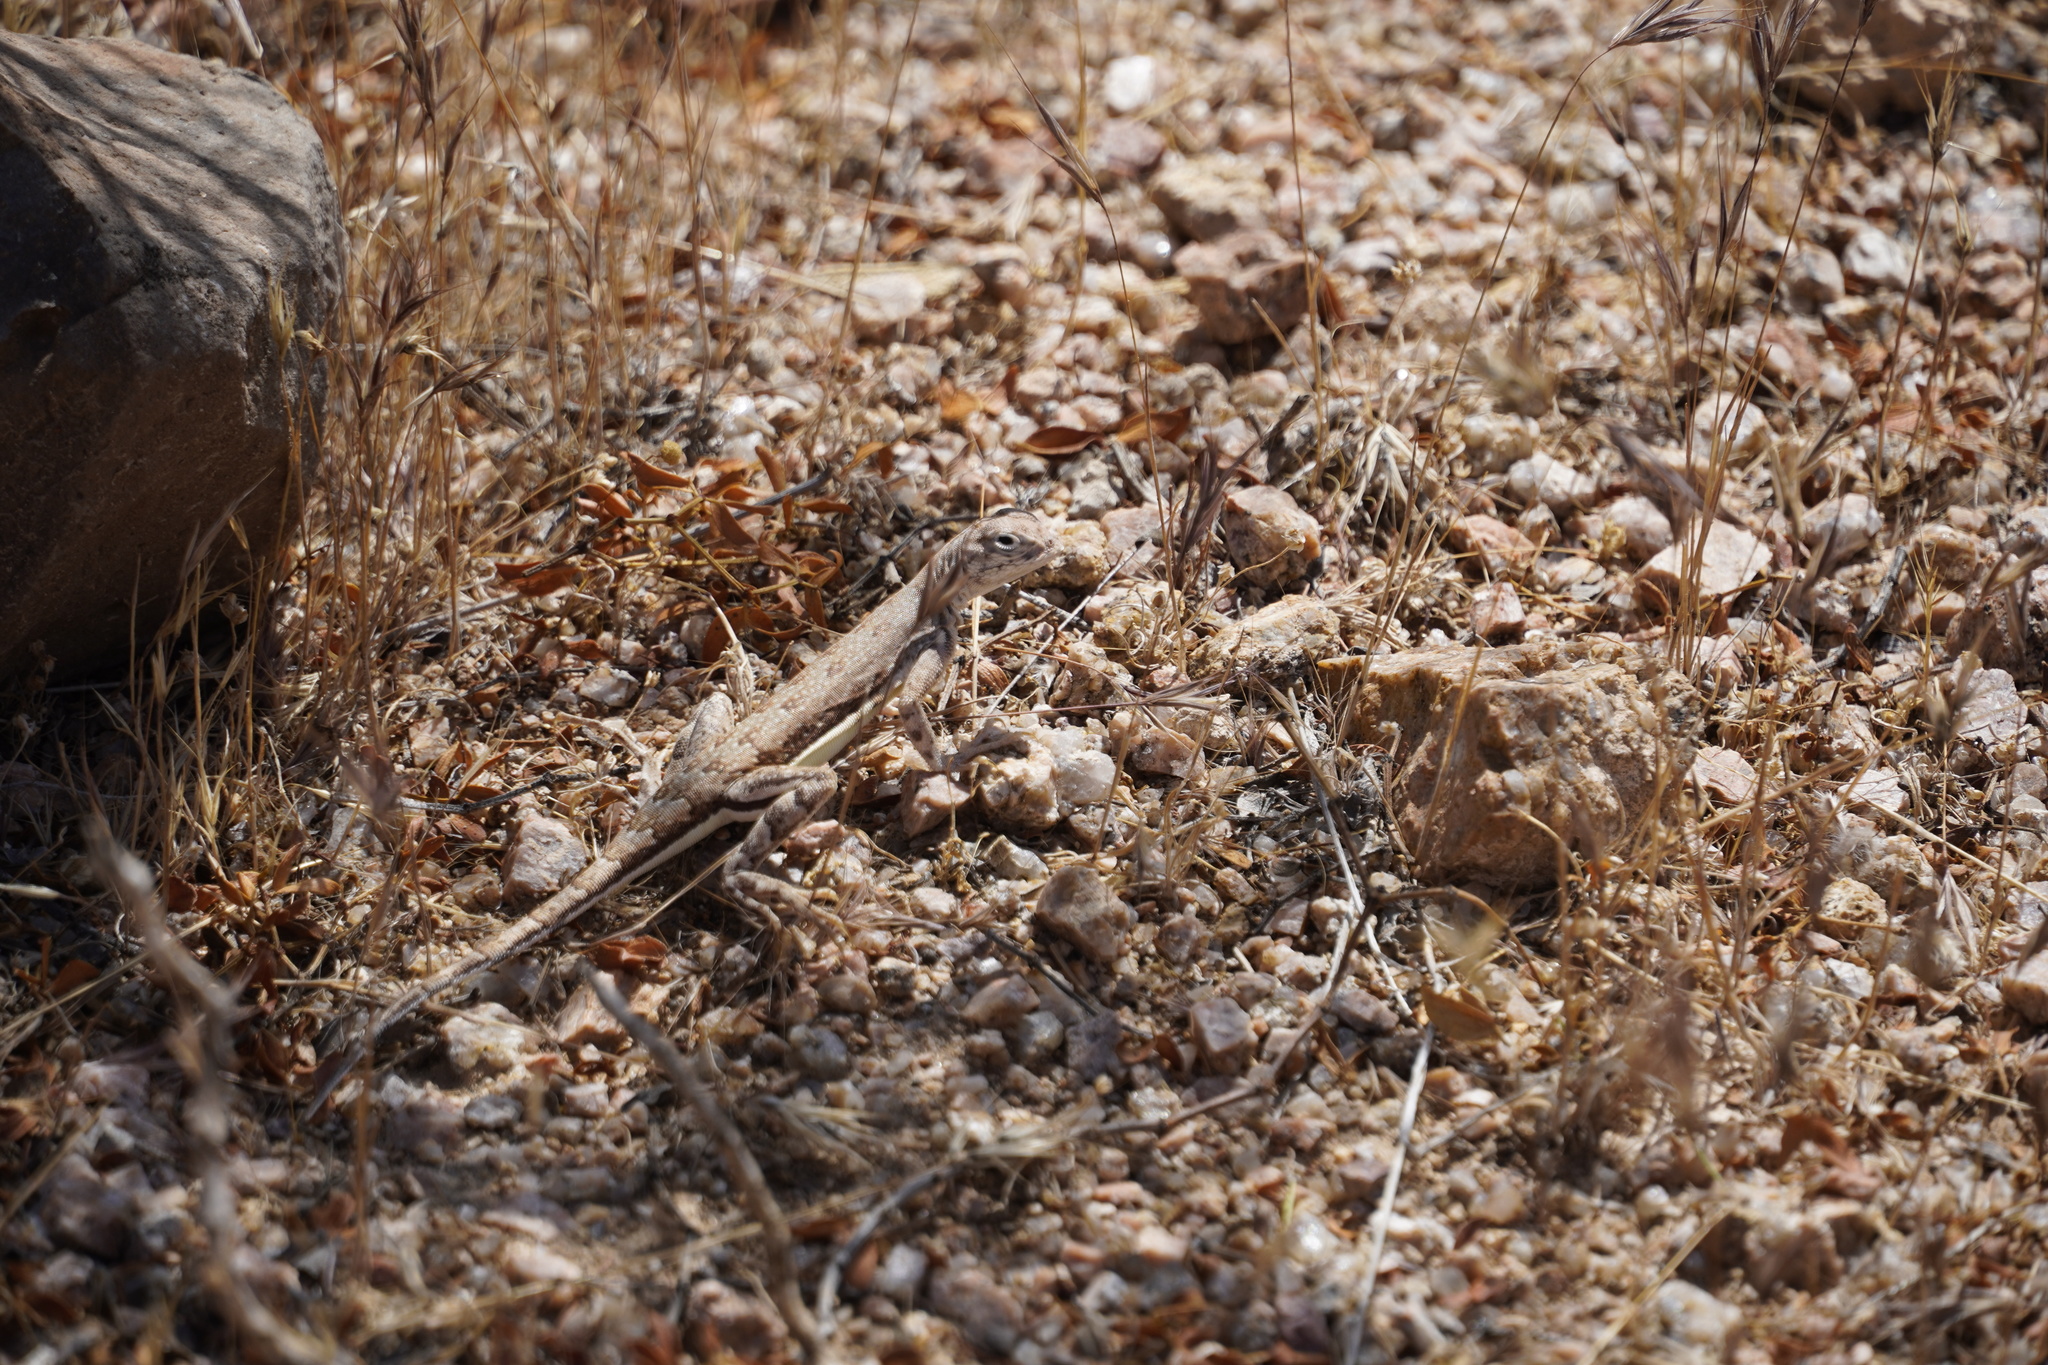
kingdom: Animalia
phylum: Chordata
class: Squamata
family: Phrynosomatidae
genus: Callisaurus
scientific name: Callisaurus draconoides
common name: Zebra-tailed lizard
